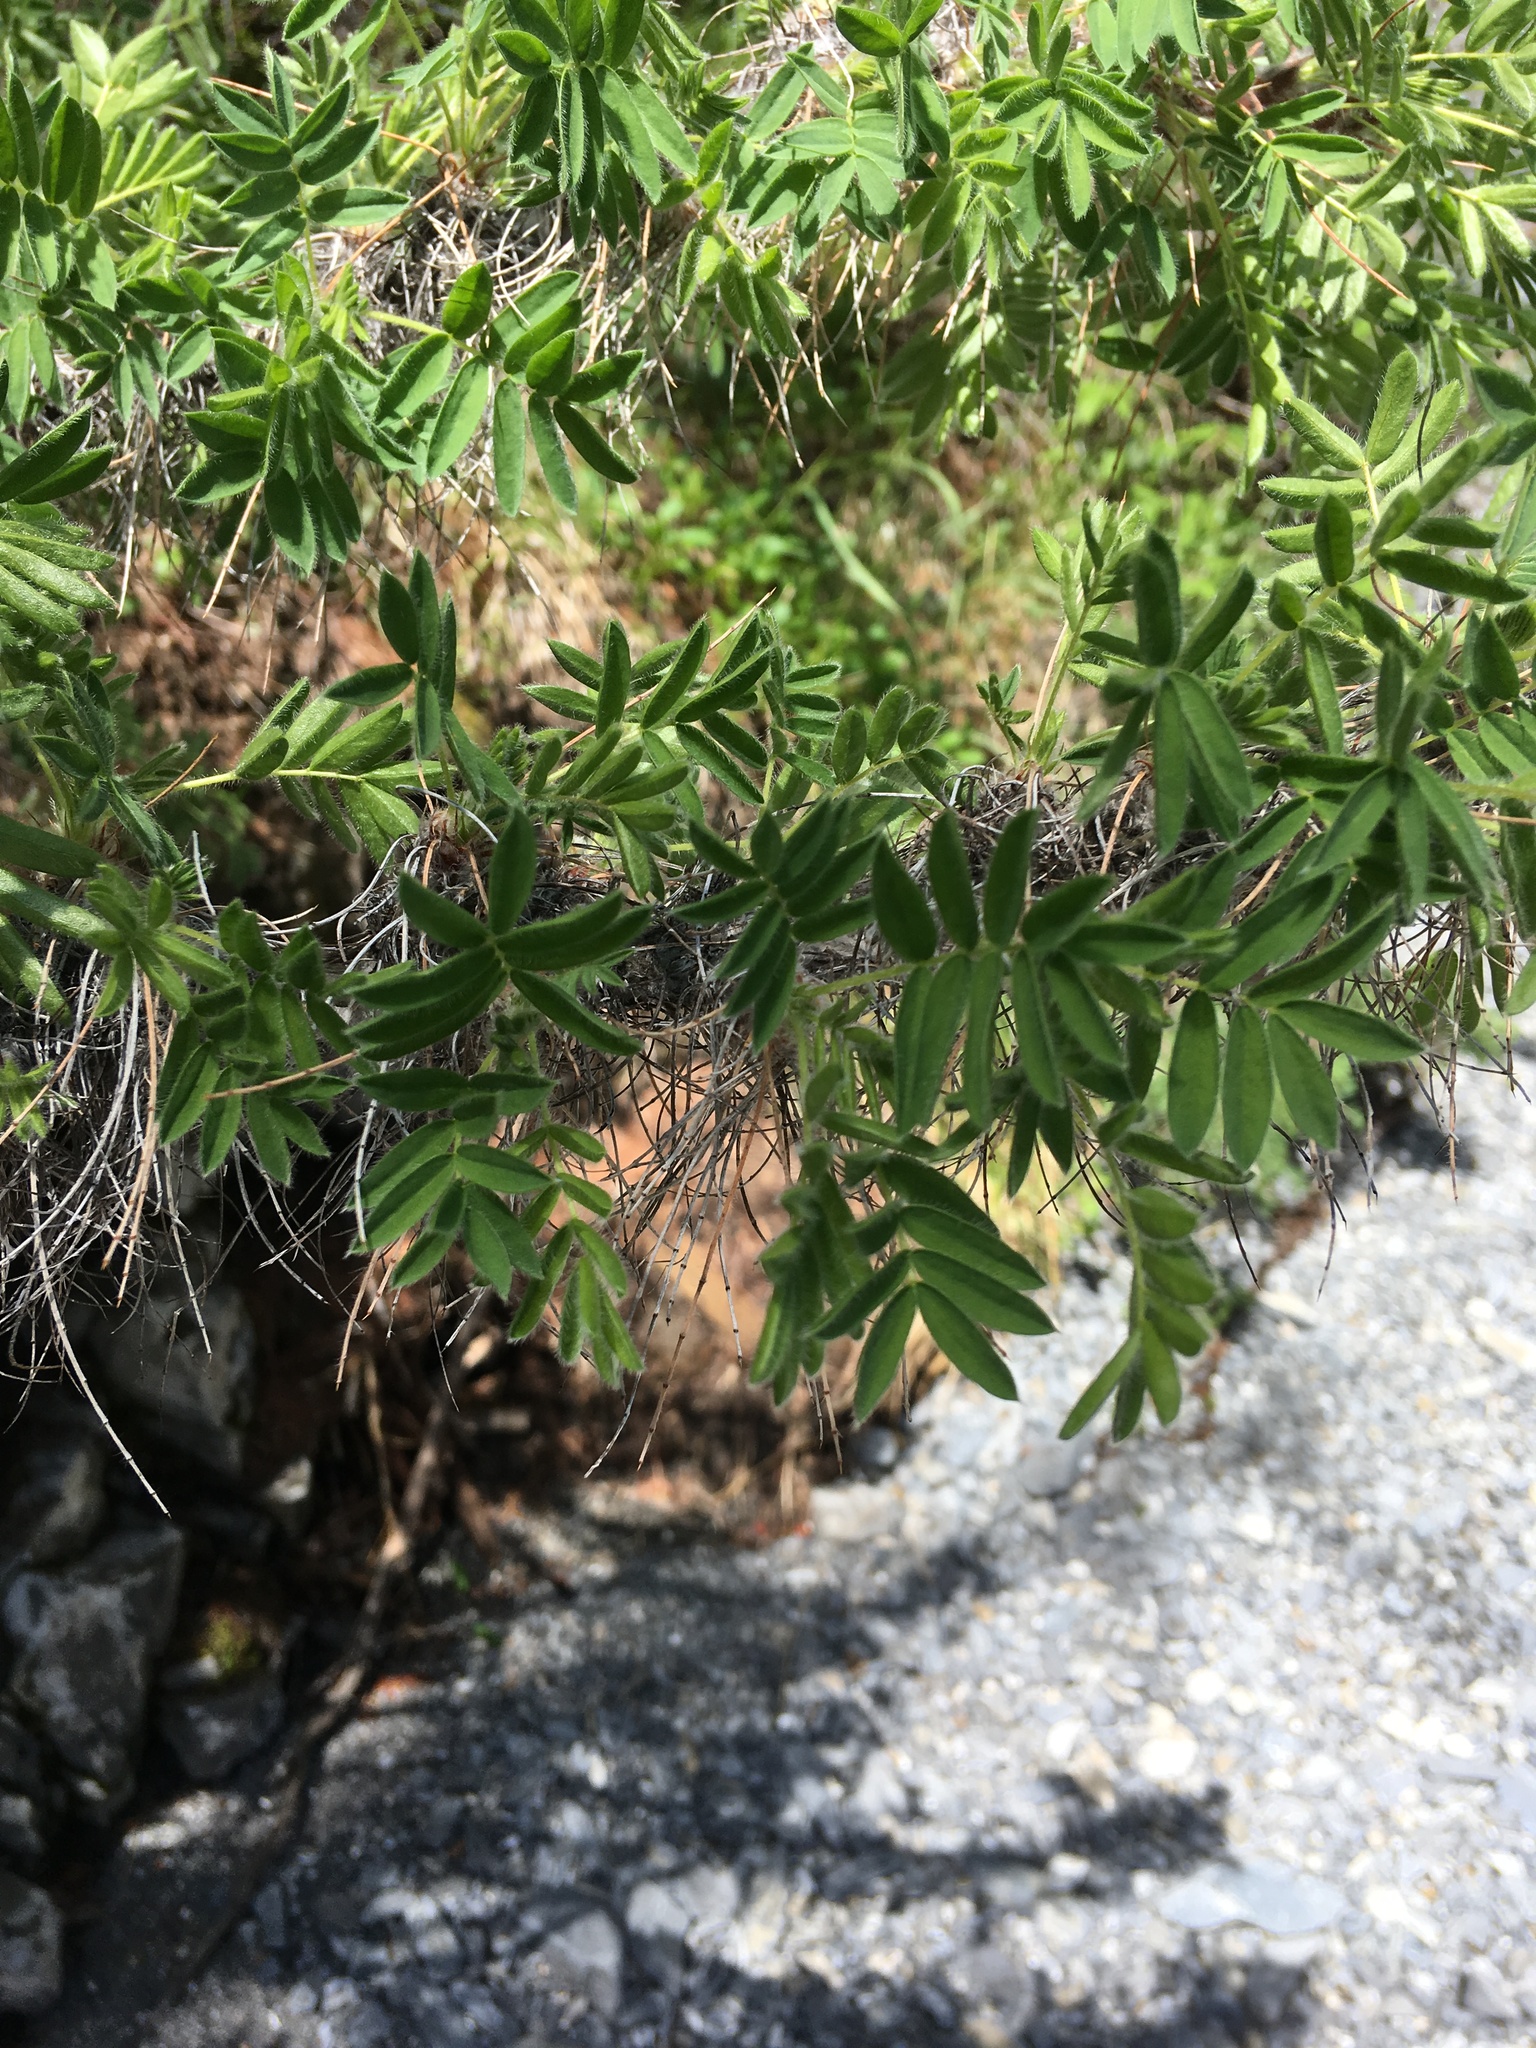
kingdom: Plantae
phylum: Tracheophyta
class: Magnoliopsida
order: Fabales
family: Fabaceae
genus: Caragana
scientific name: Caragana jubata
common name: Shag-spine peashrub
